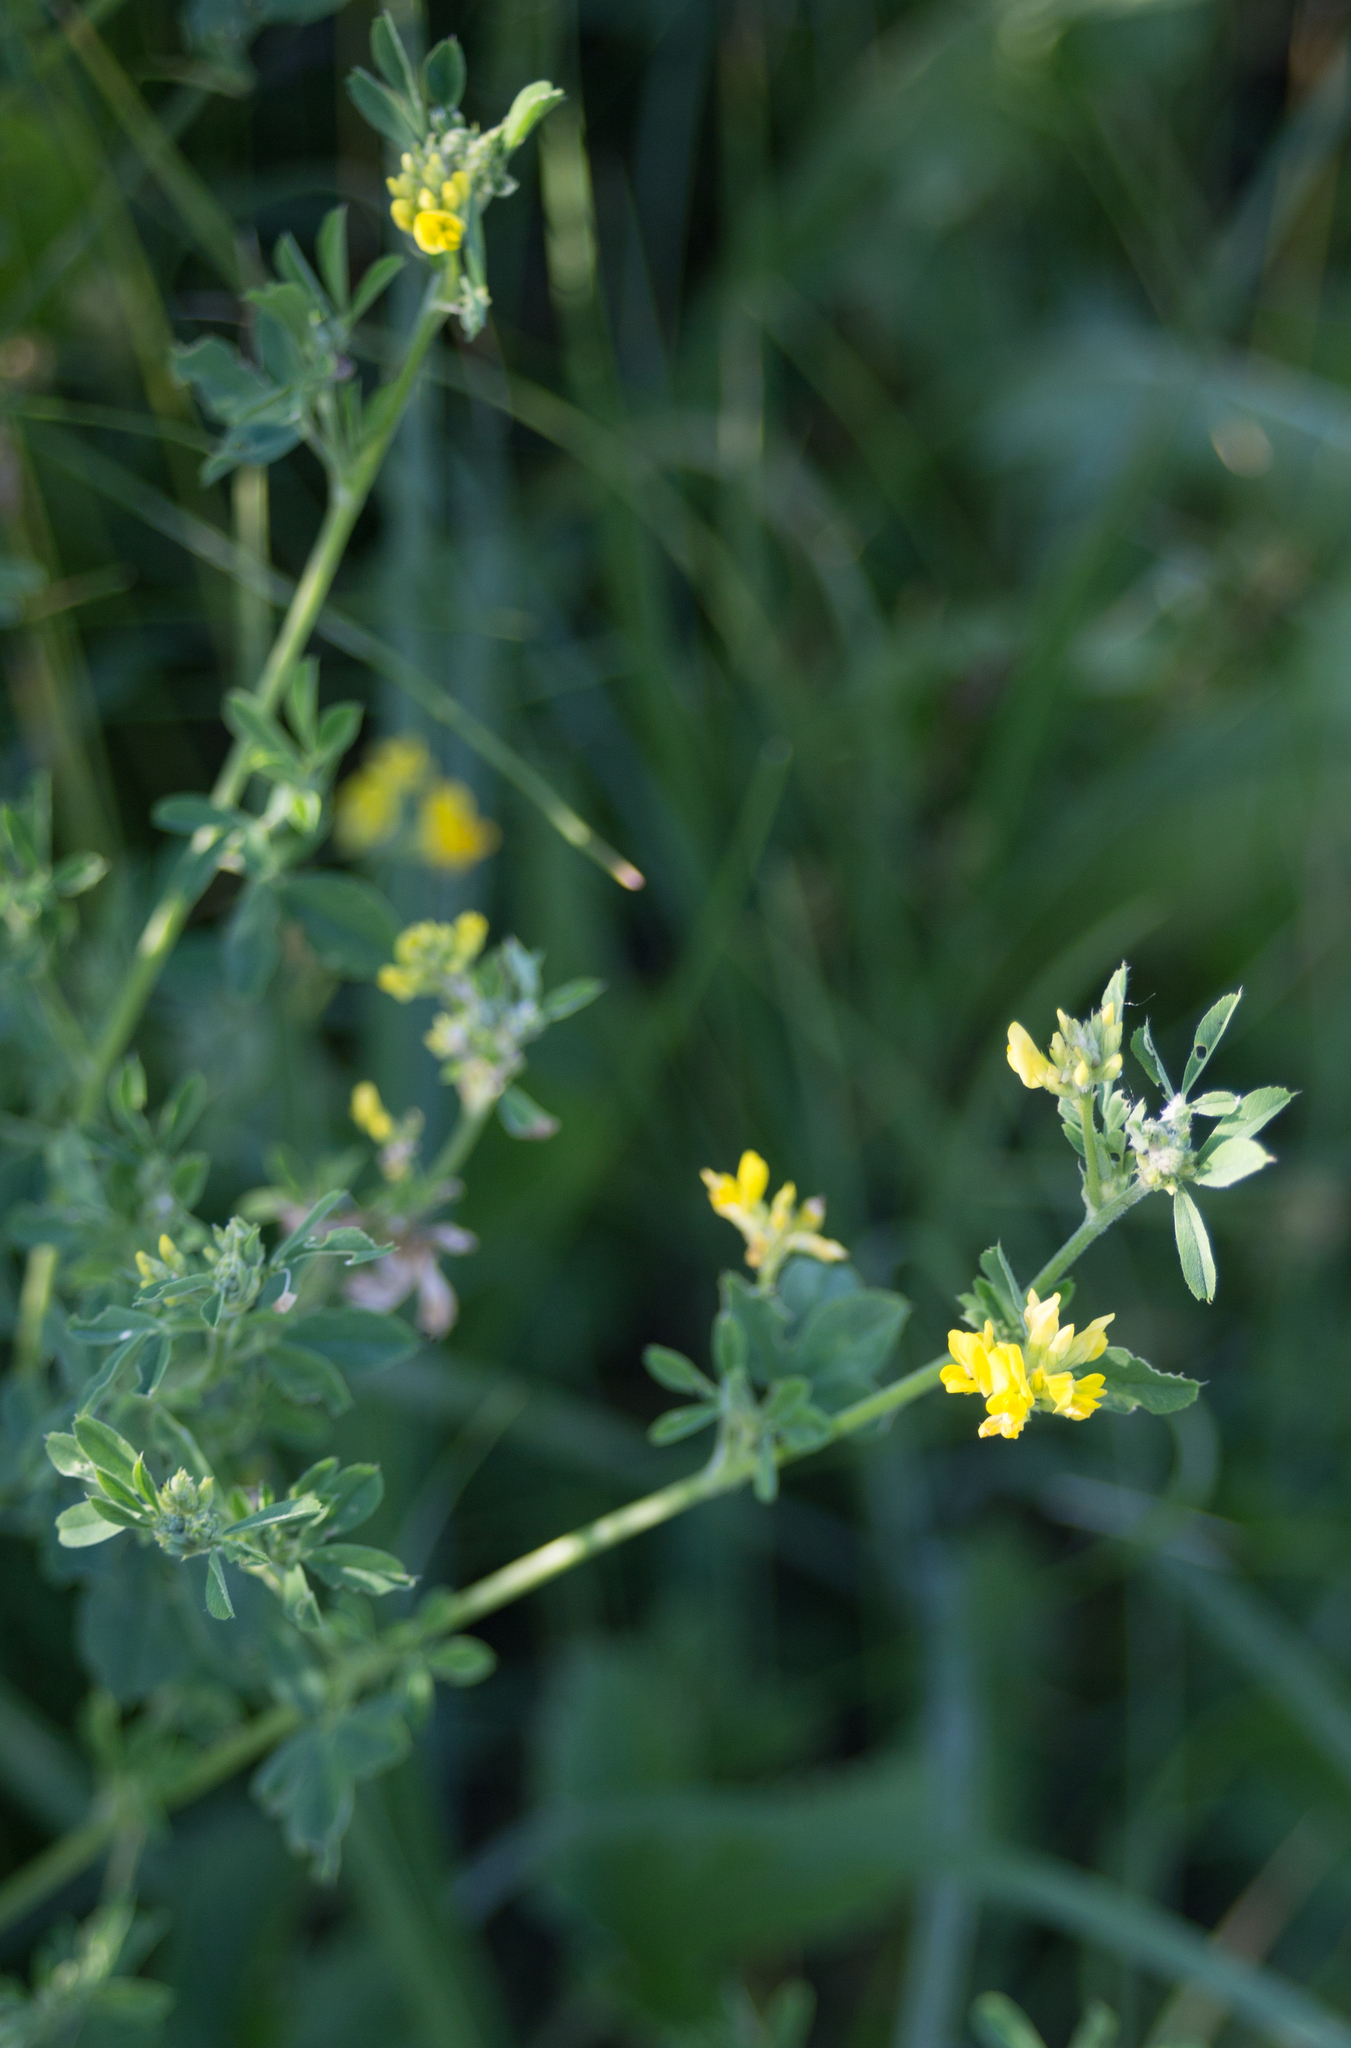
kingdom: Plantae
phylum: Tracheophyta
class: Magnoliopsida
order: Fabales
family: Fabaceae
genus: Medicago
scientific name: Medicago falcata
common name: Sickle medick
